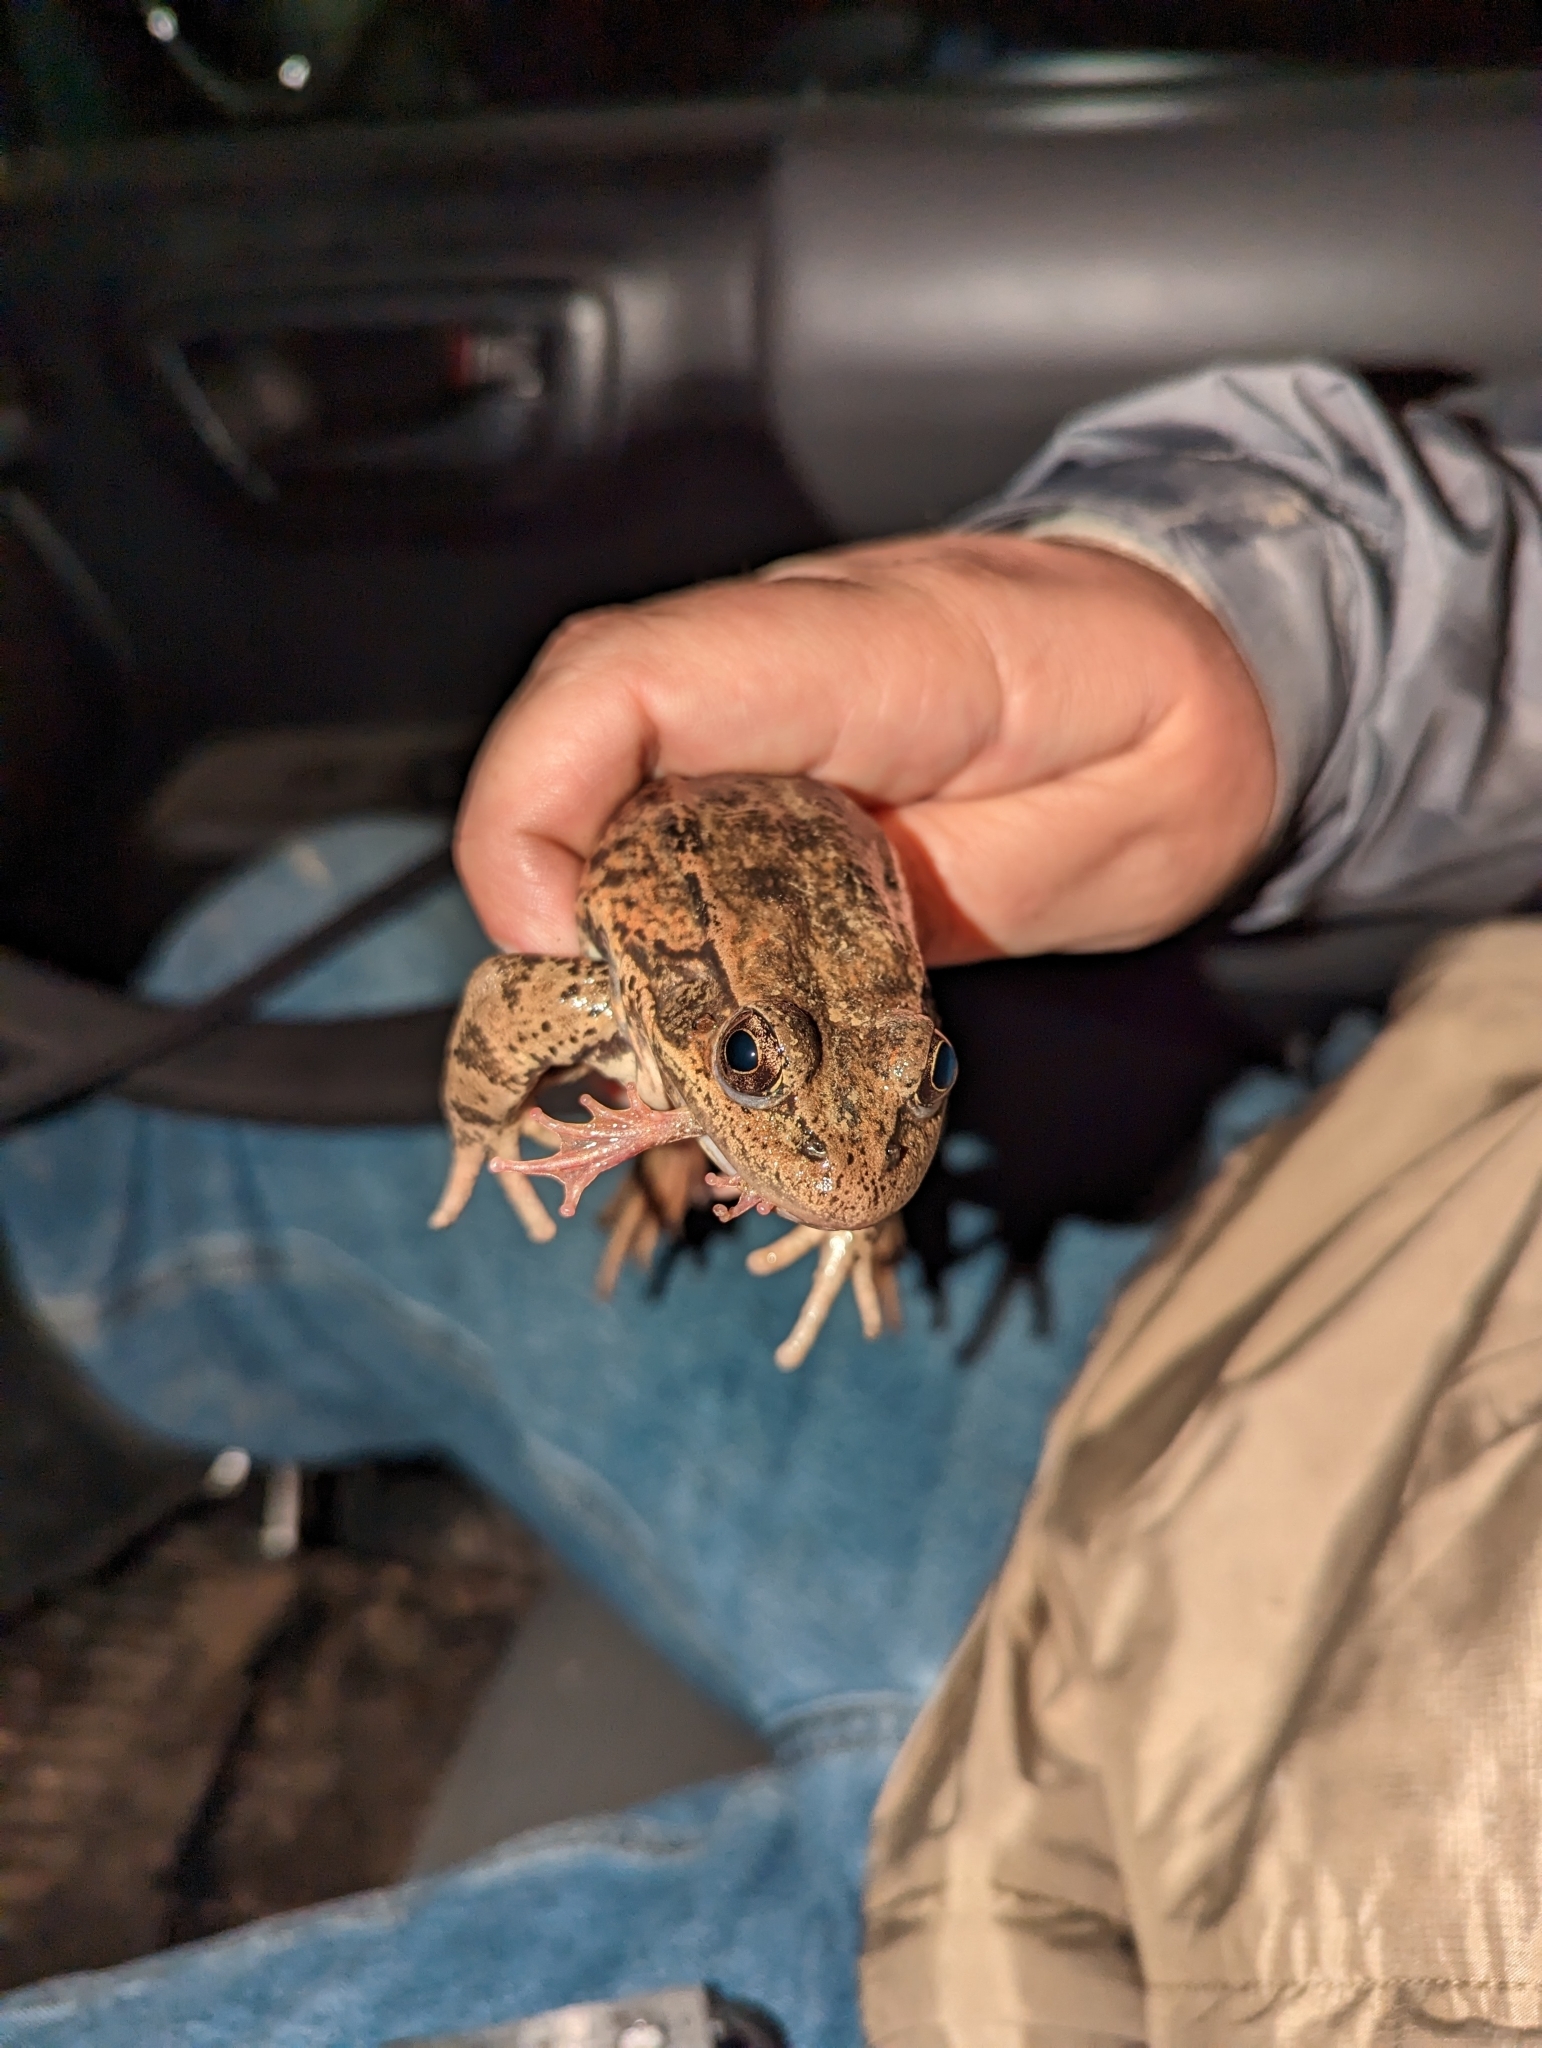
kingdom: Animalia
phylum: Chordata
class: Amphibia
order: Anura
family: Ranidae
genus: Rana
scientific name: Rana draytonii
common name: California red-legged frog
